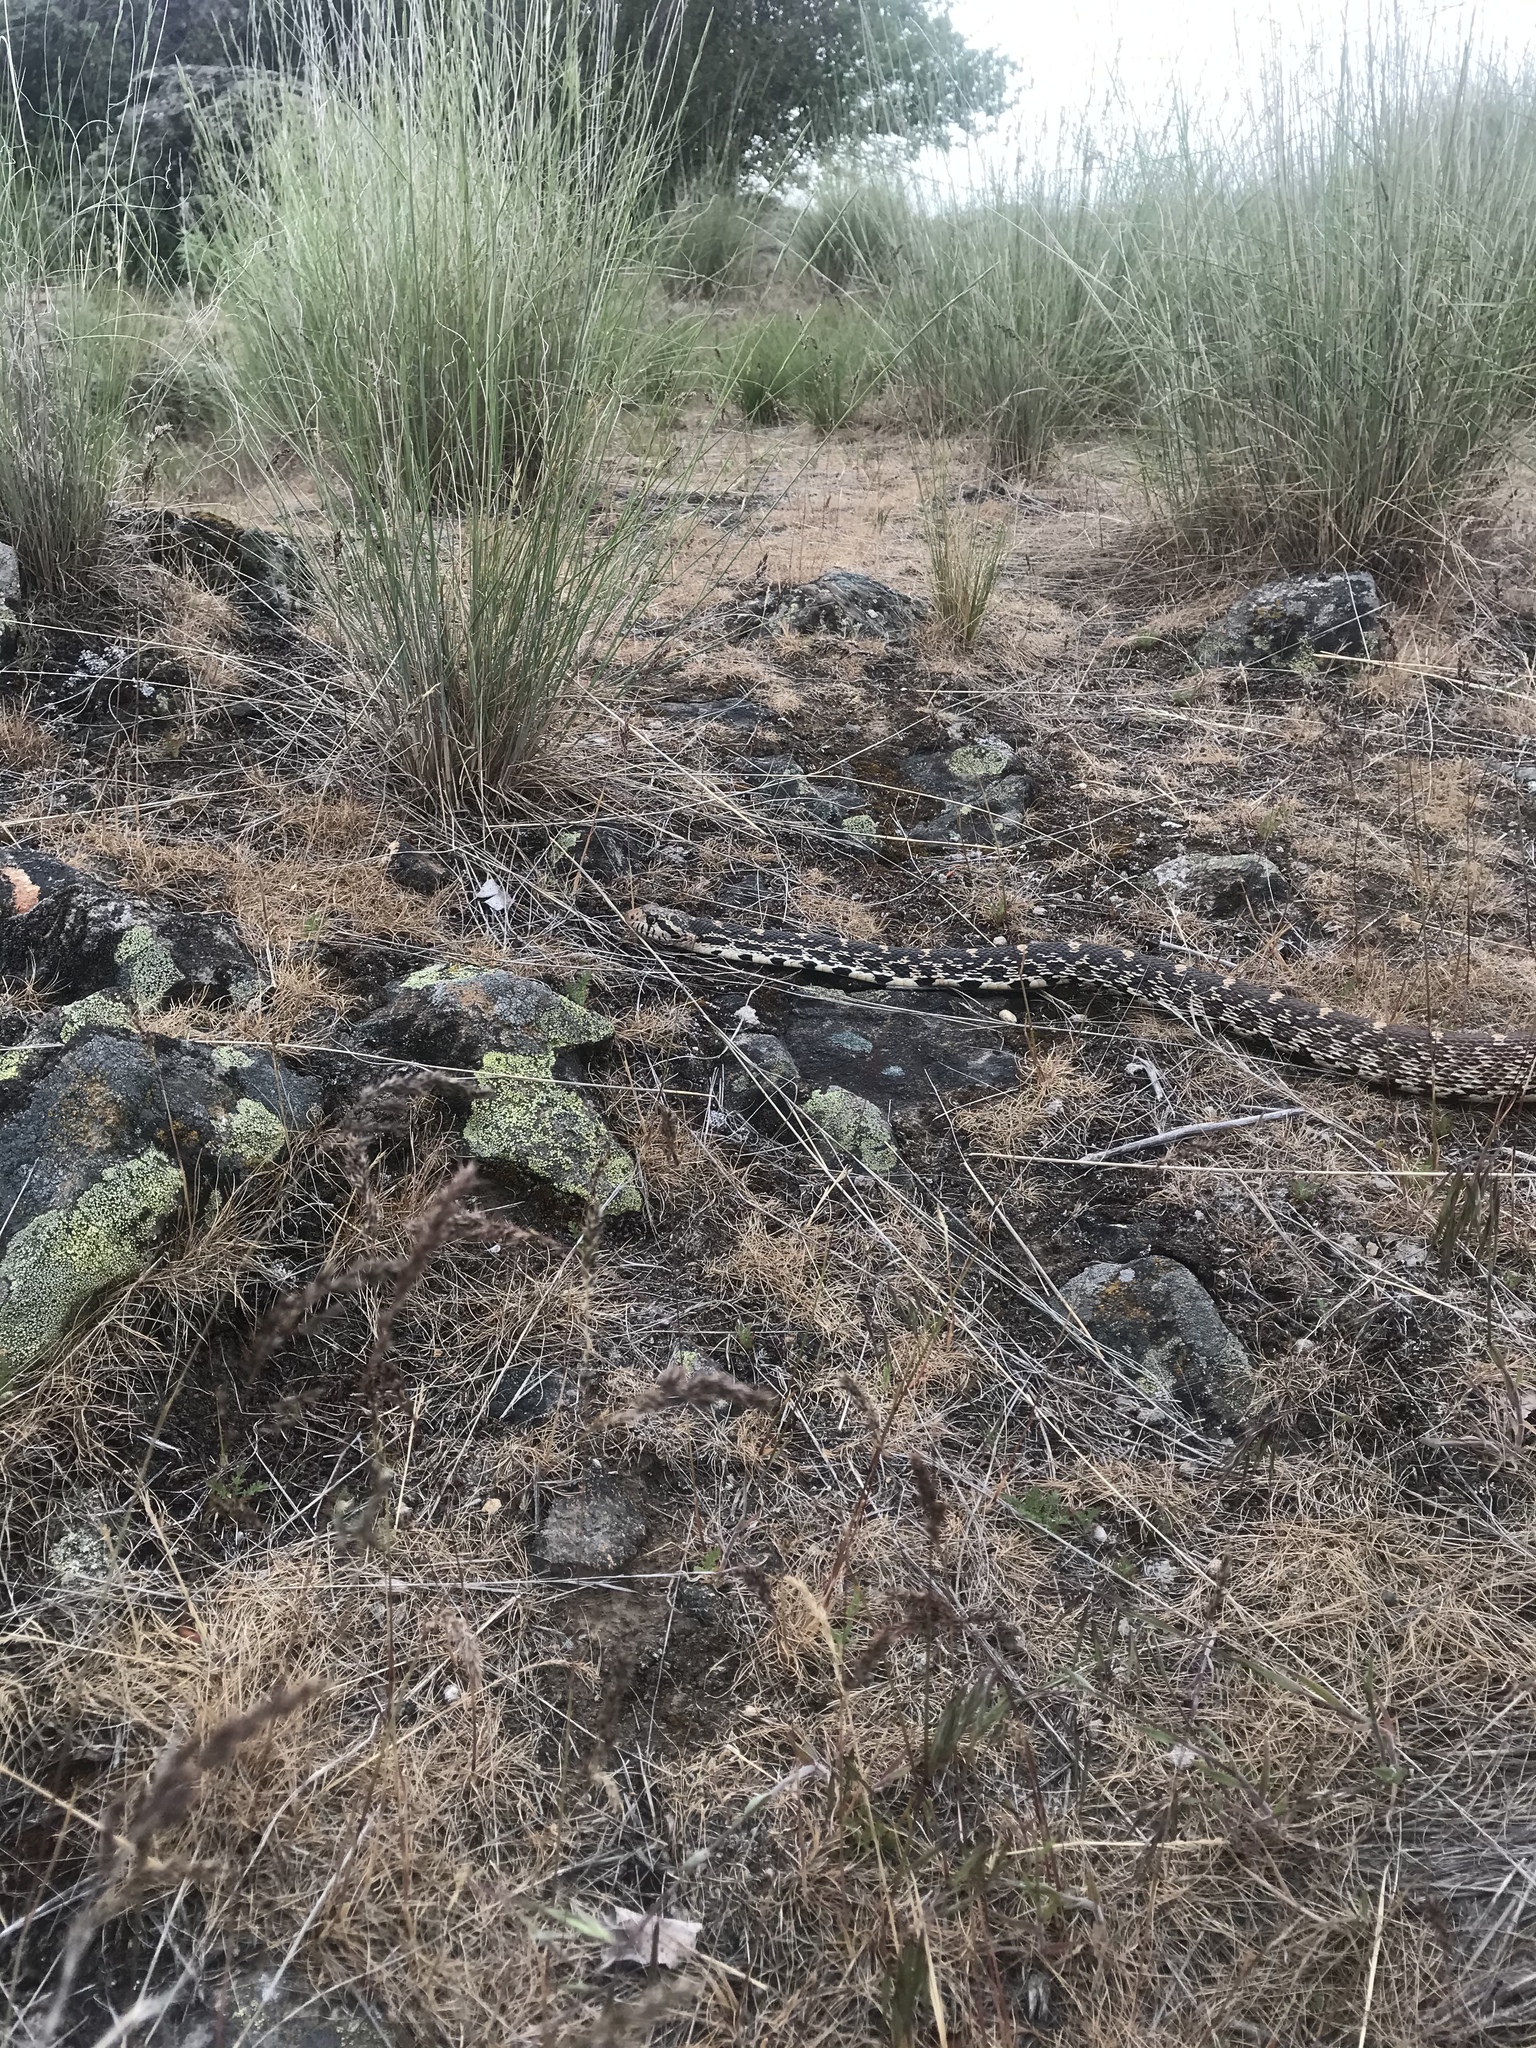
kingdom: Animalia
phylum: Chordata
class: Squamata
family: Colubridae
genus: Pituophis
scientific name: Pituophis catenifer
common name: Gopher snake
